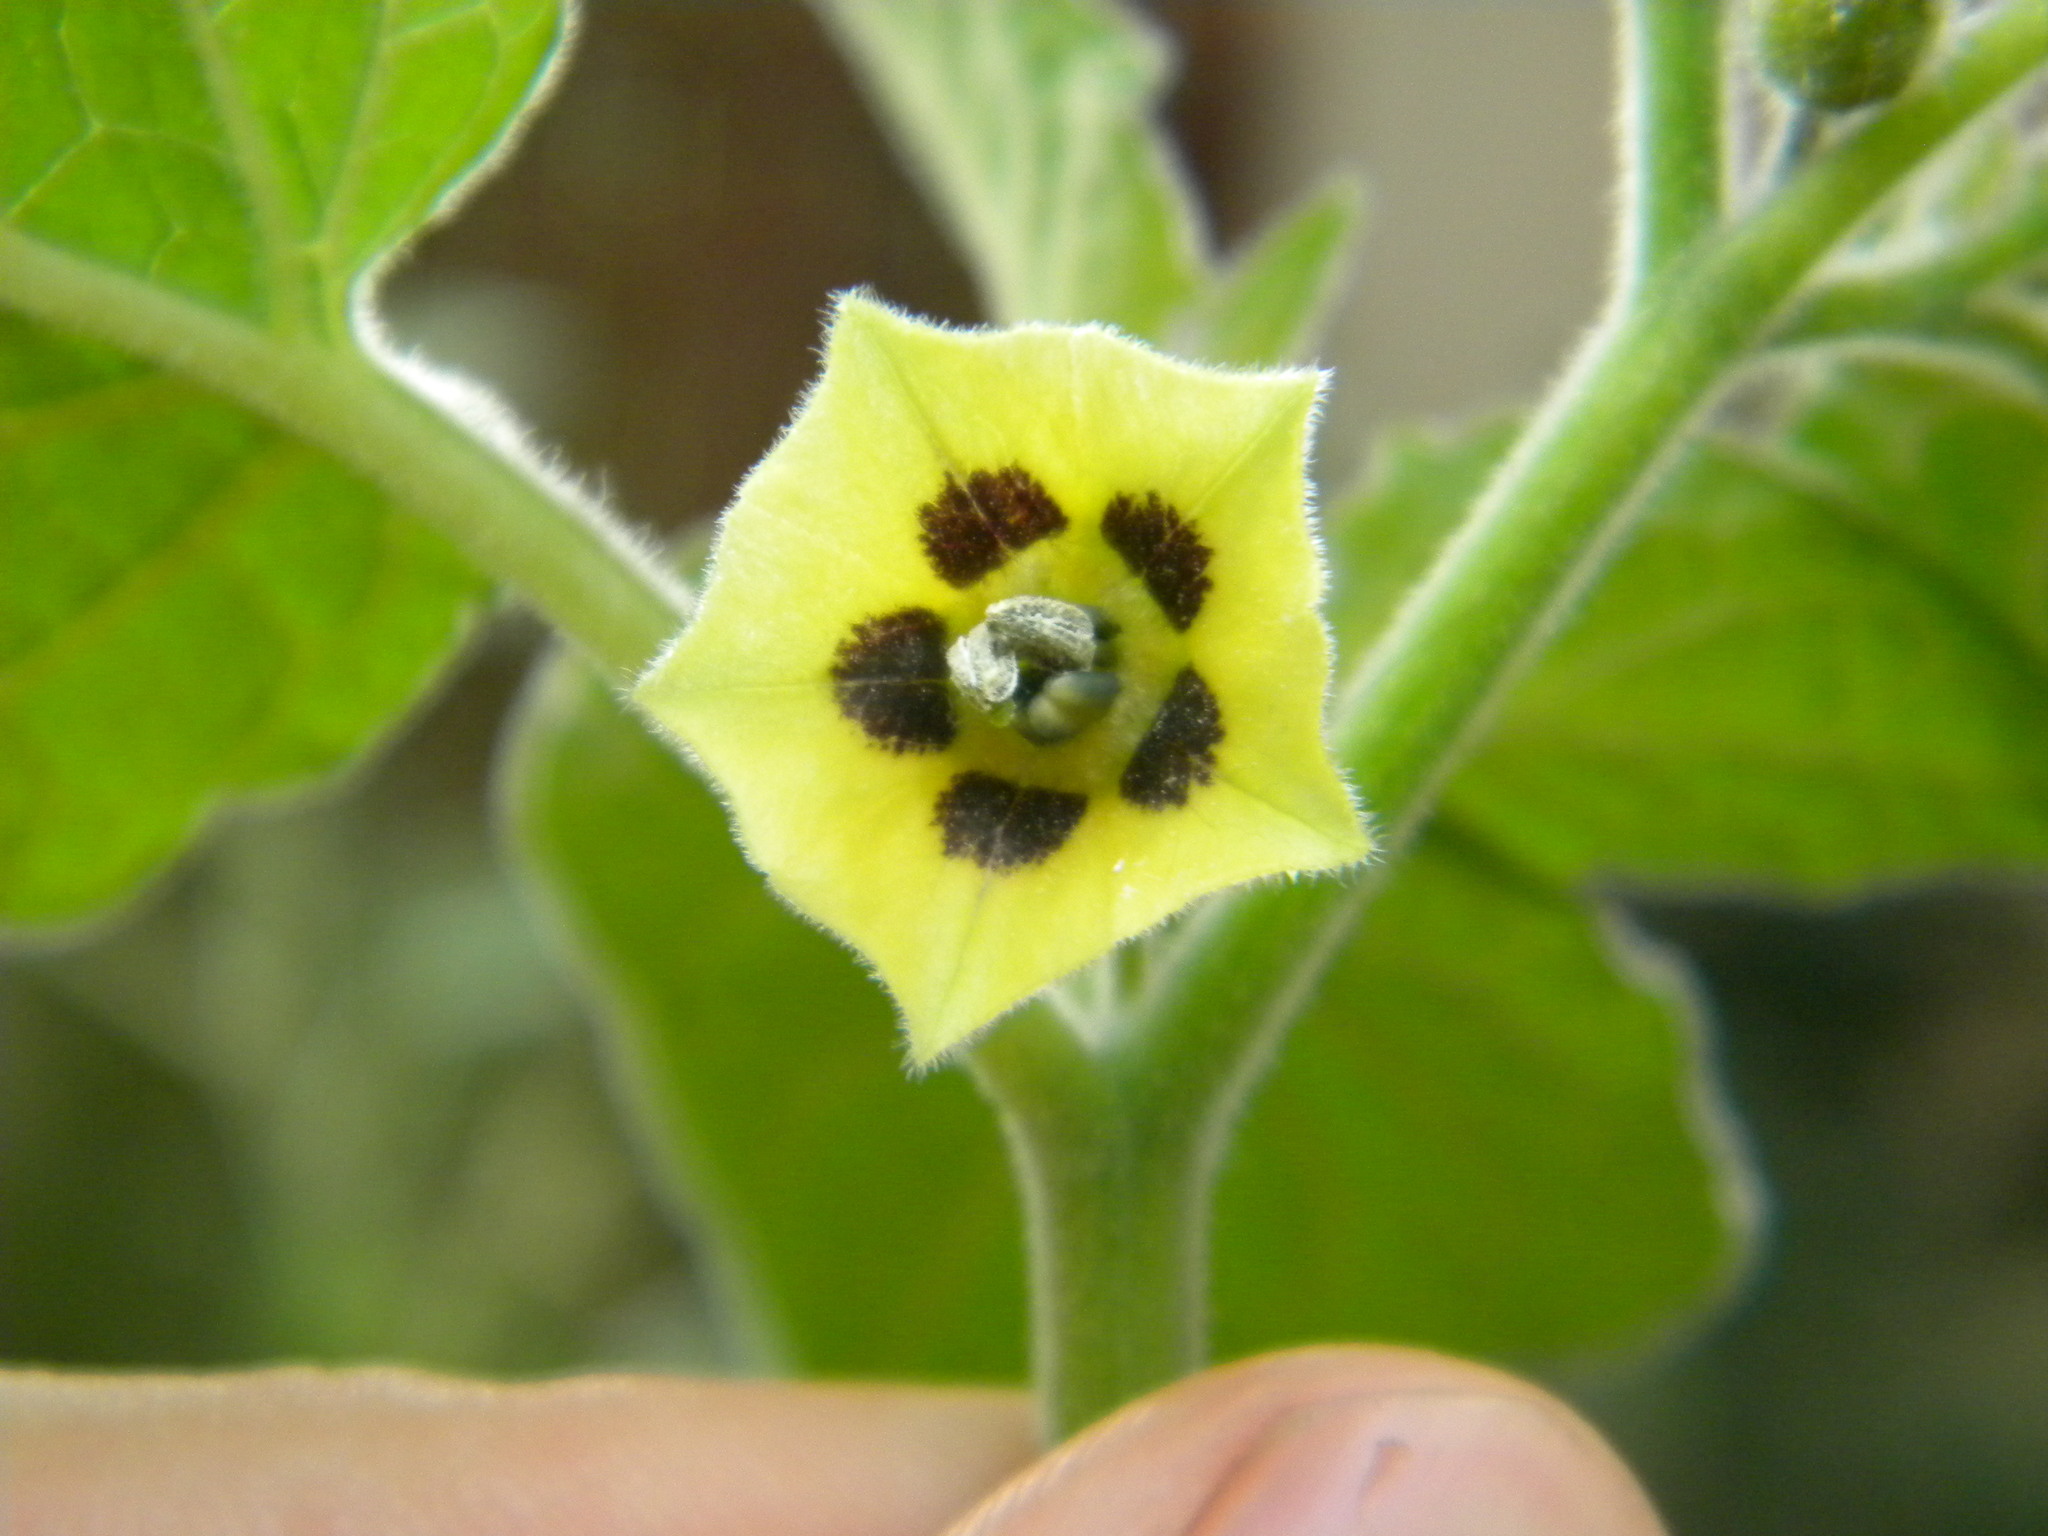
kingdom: Plantae
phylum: Tracheophyta
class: Magnoliopsida
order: Solanales
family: Solanaceae
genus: Physalis
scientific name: Physalis peruviana
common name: Cape-gooseberry
